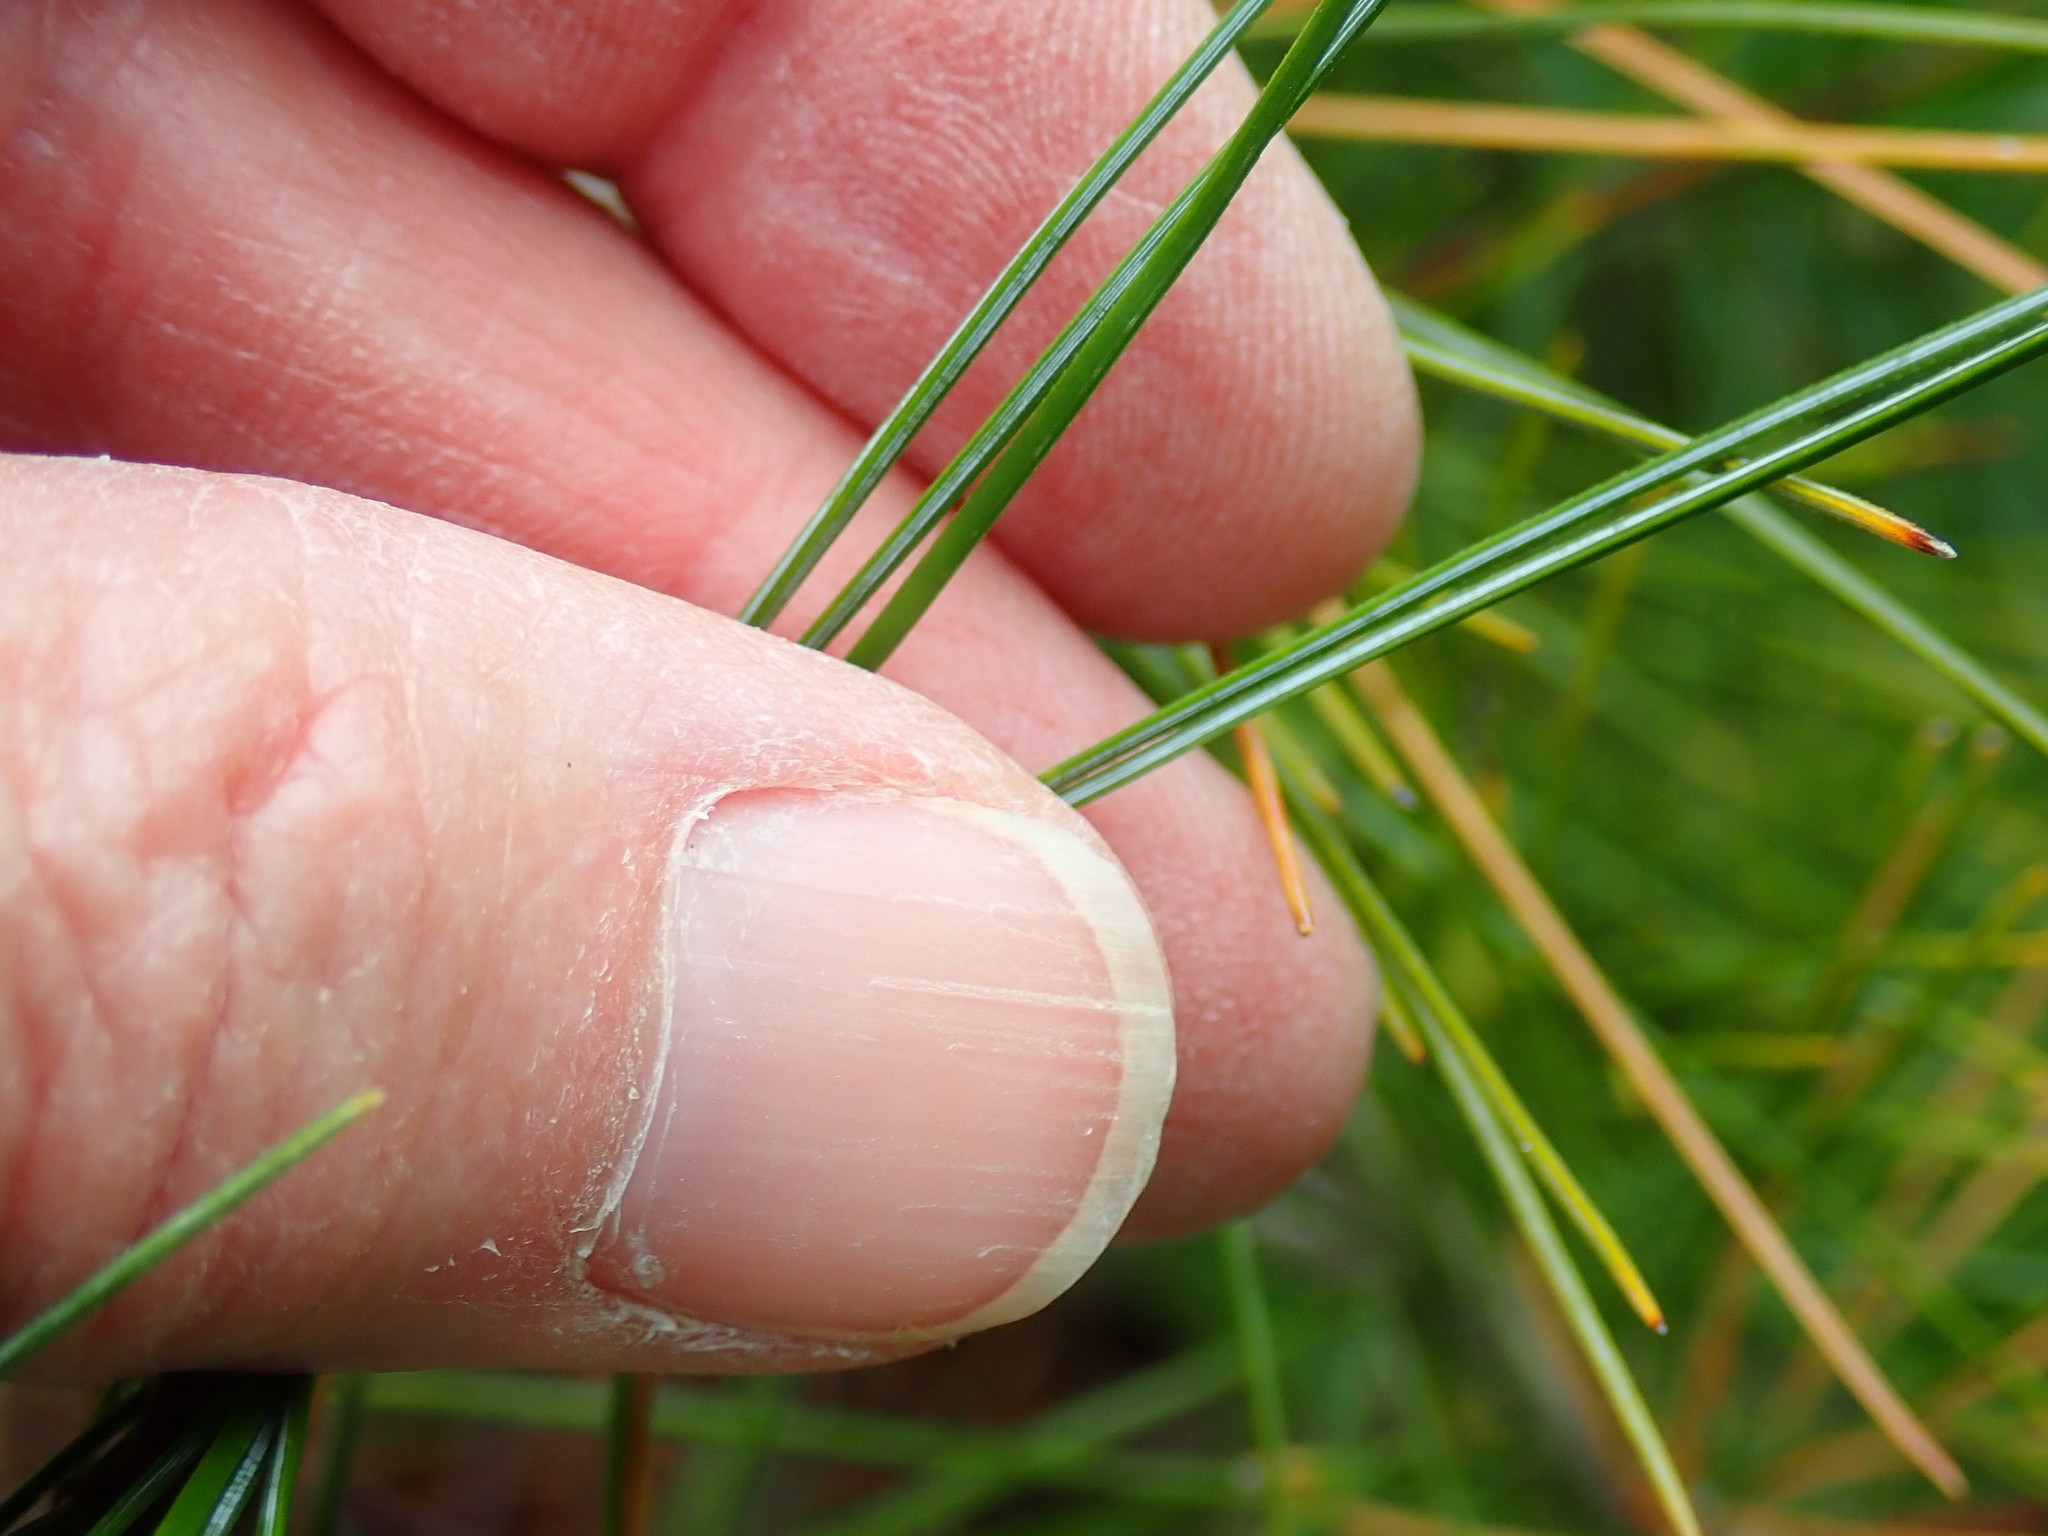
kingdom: Plantae
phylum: Tracheophyta
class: Pinopsida
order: Pinales
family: Pinaceae
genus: Pinus
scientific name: Pinus strobus
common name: Weymouth pine
